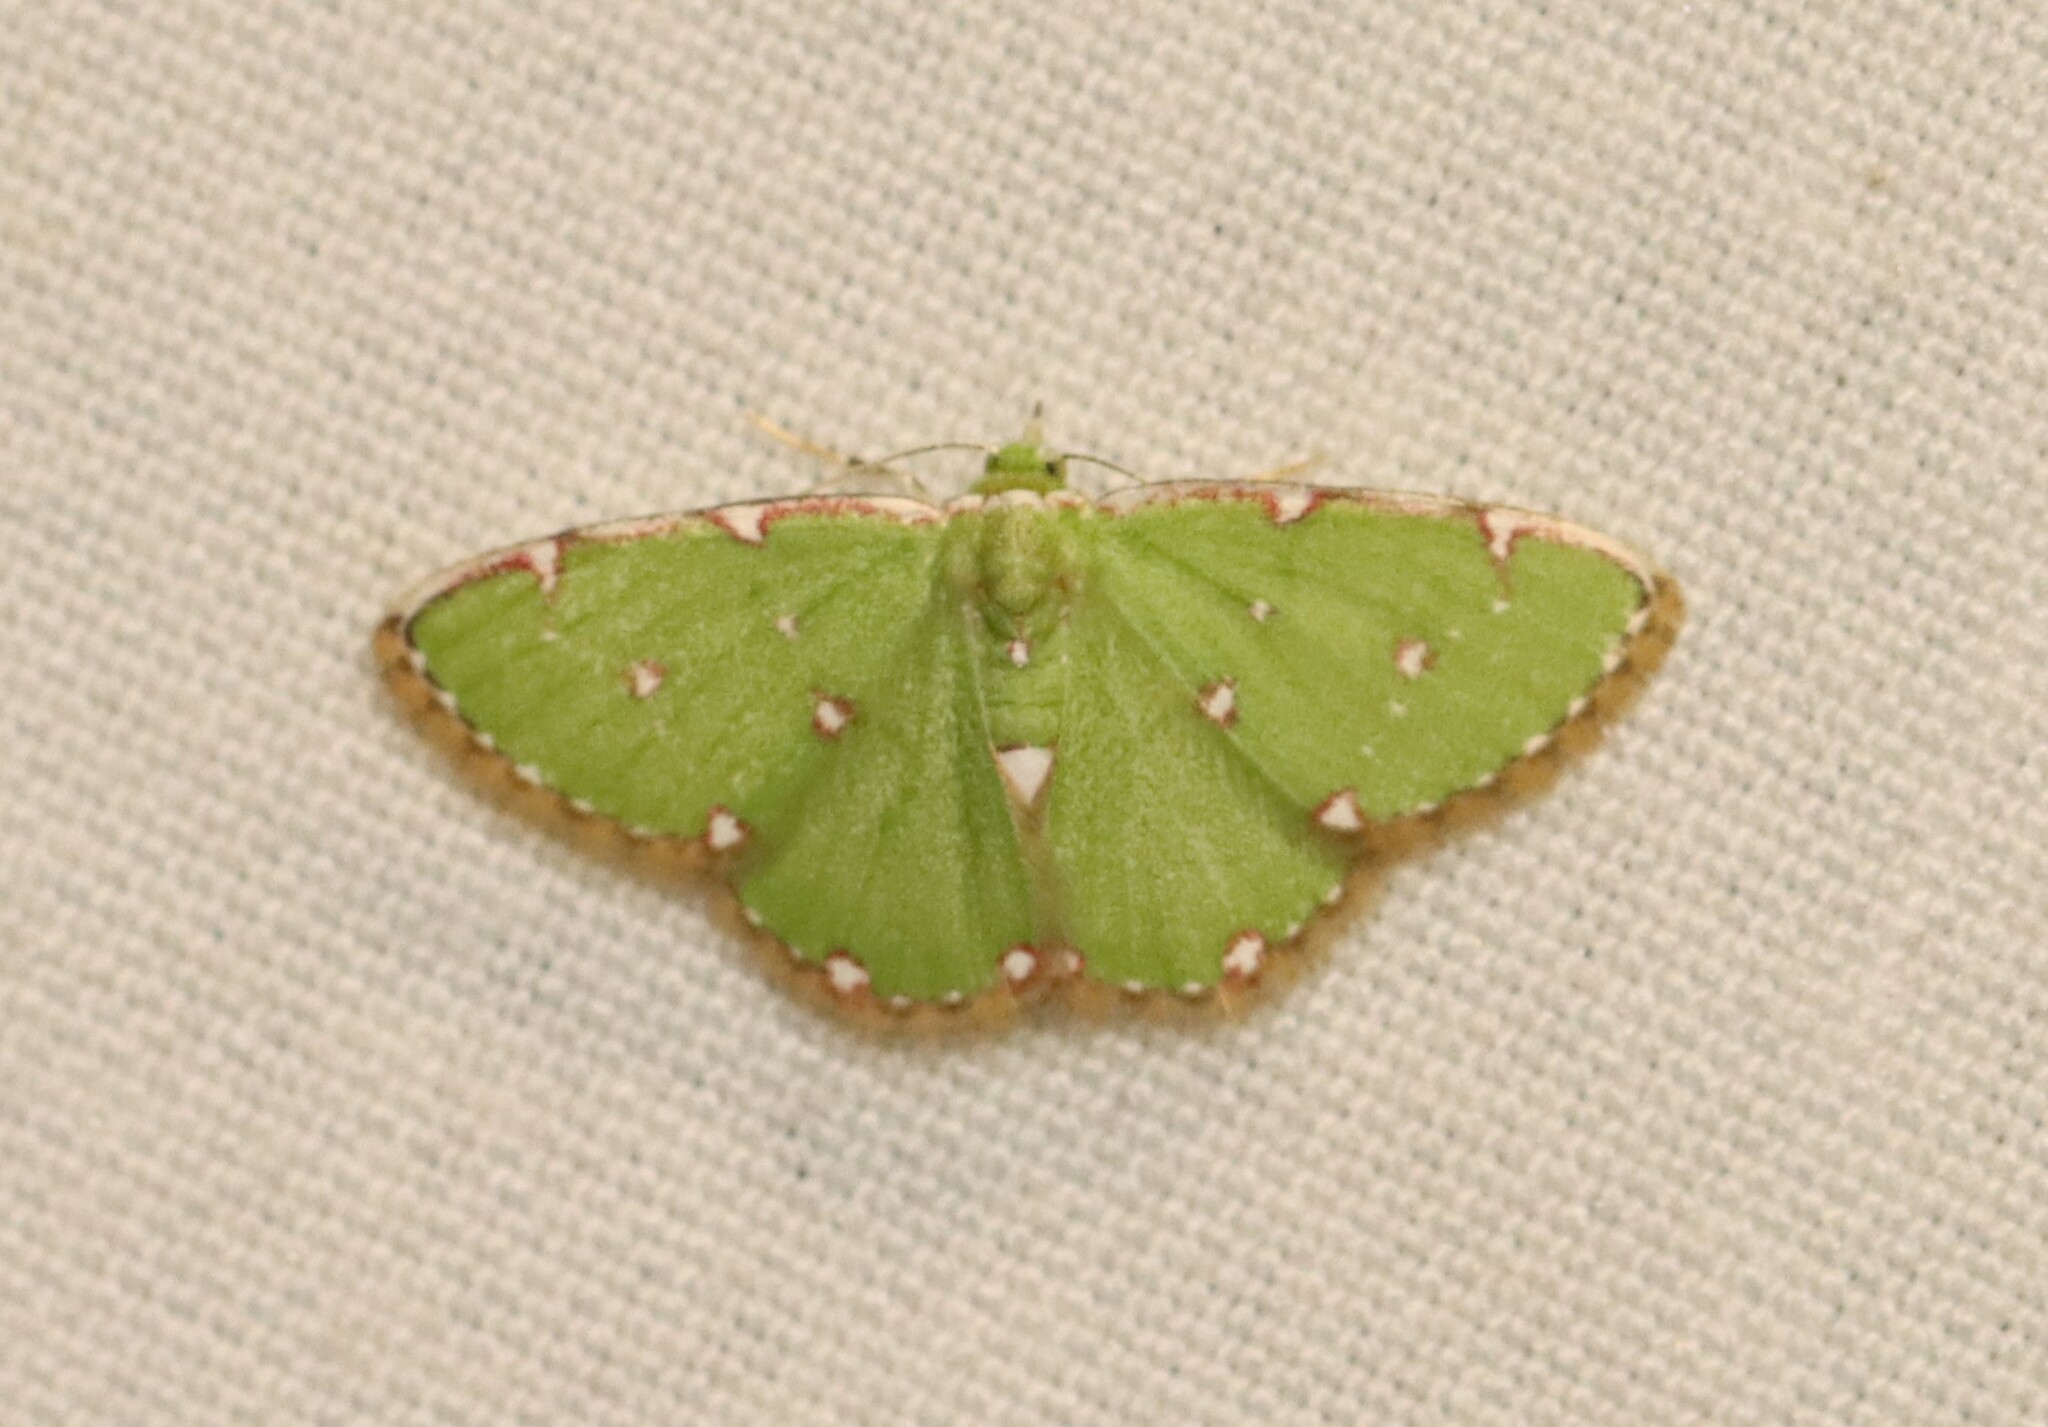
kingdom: Animalia
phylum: Arthropoda
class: Insecta
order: Lepidoptera
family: Geometridae
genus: Argyrocosma
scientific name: Argyrocosma inductaria
